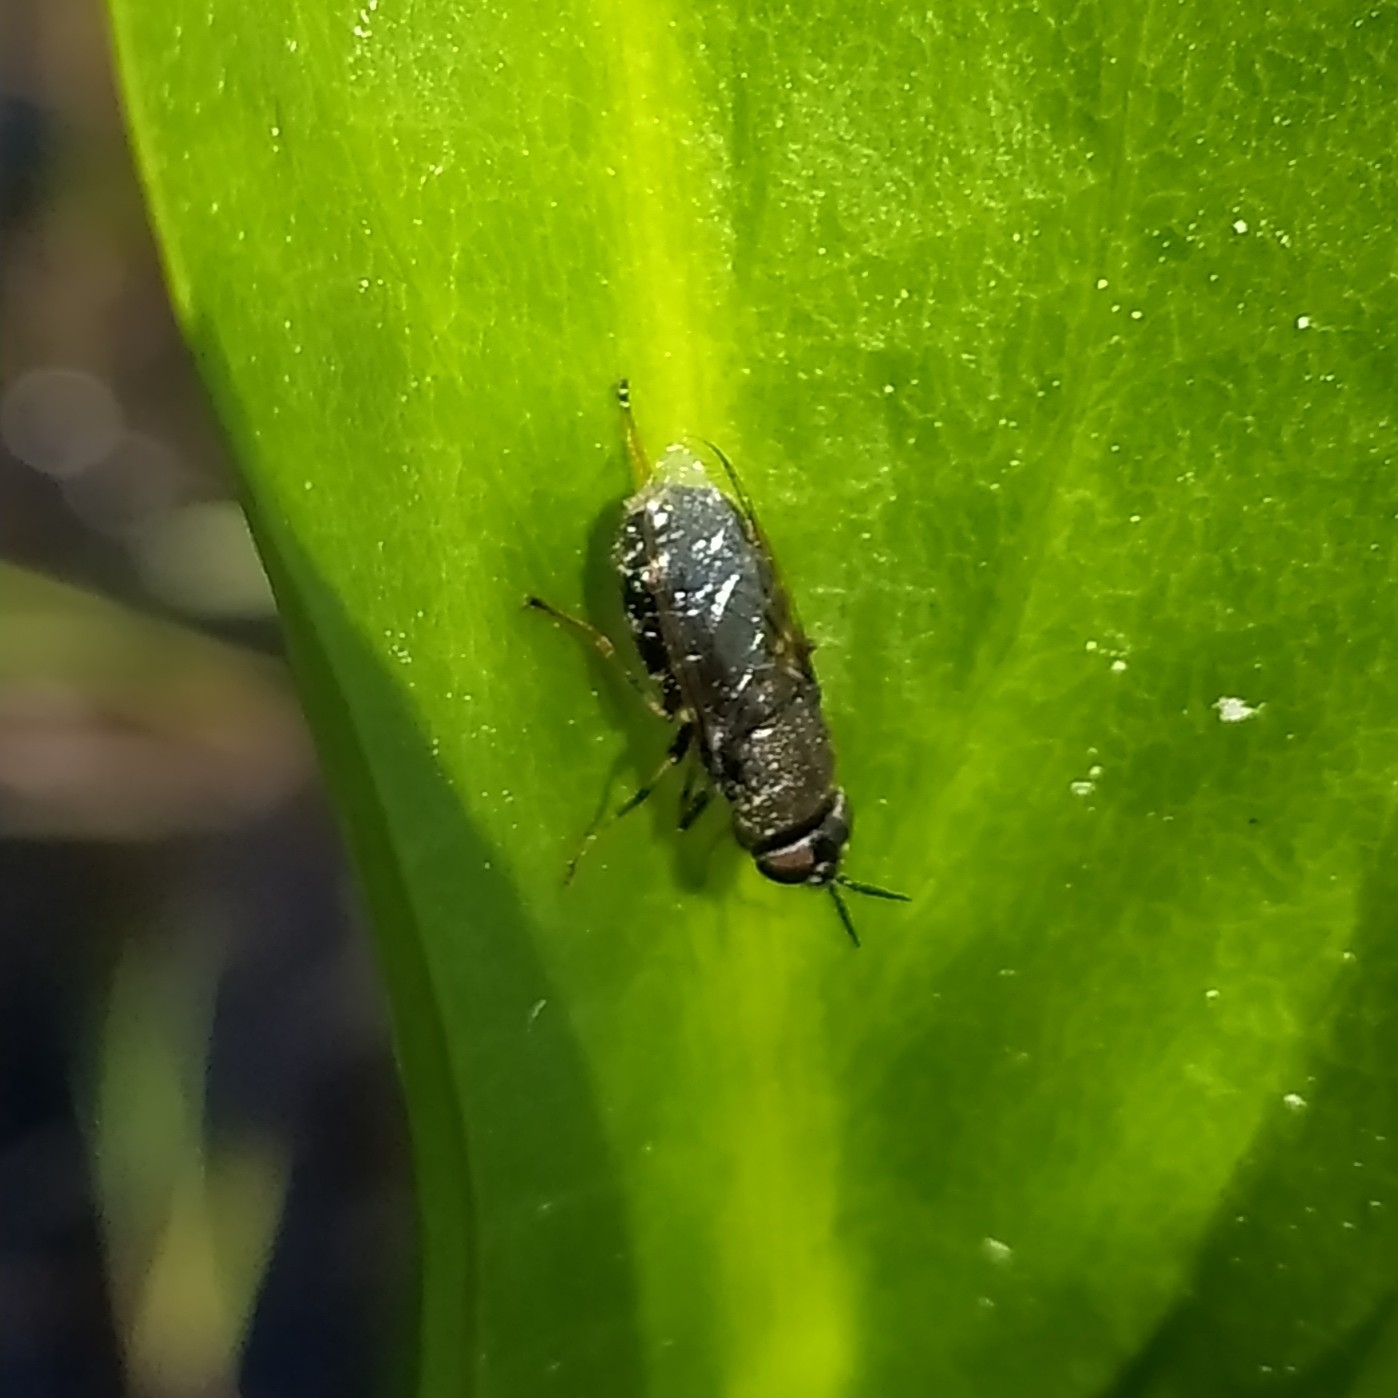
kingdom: Animalia
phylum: Arthropoda
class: Insecta
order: Diptera
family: Stratiomyidae
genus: Odontomyia
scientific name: Odontomyia tigrina
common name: Black colonel
